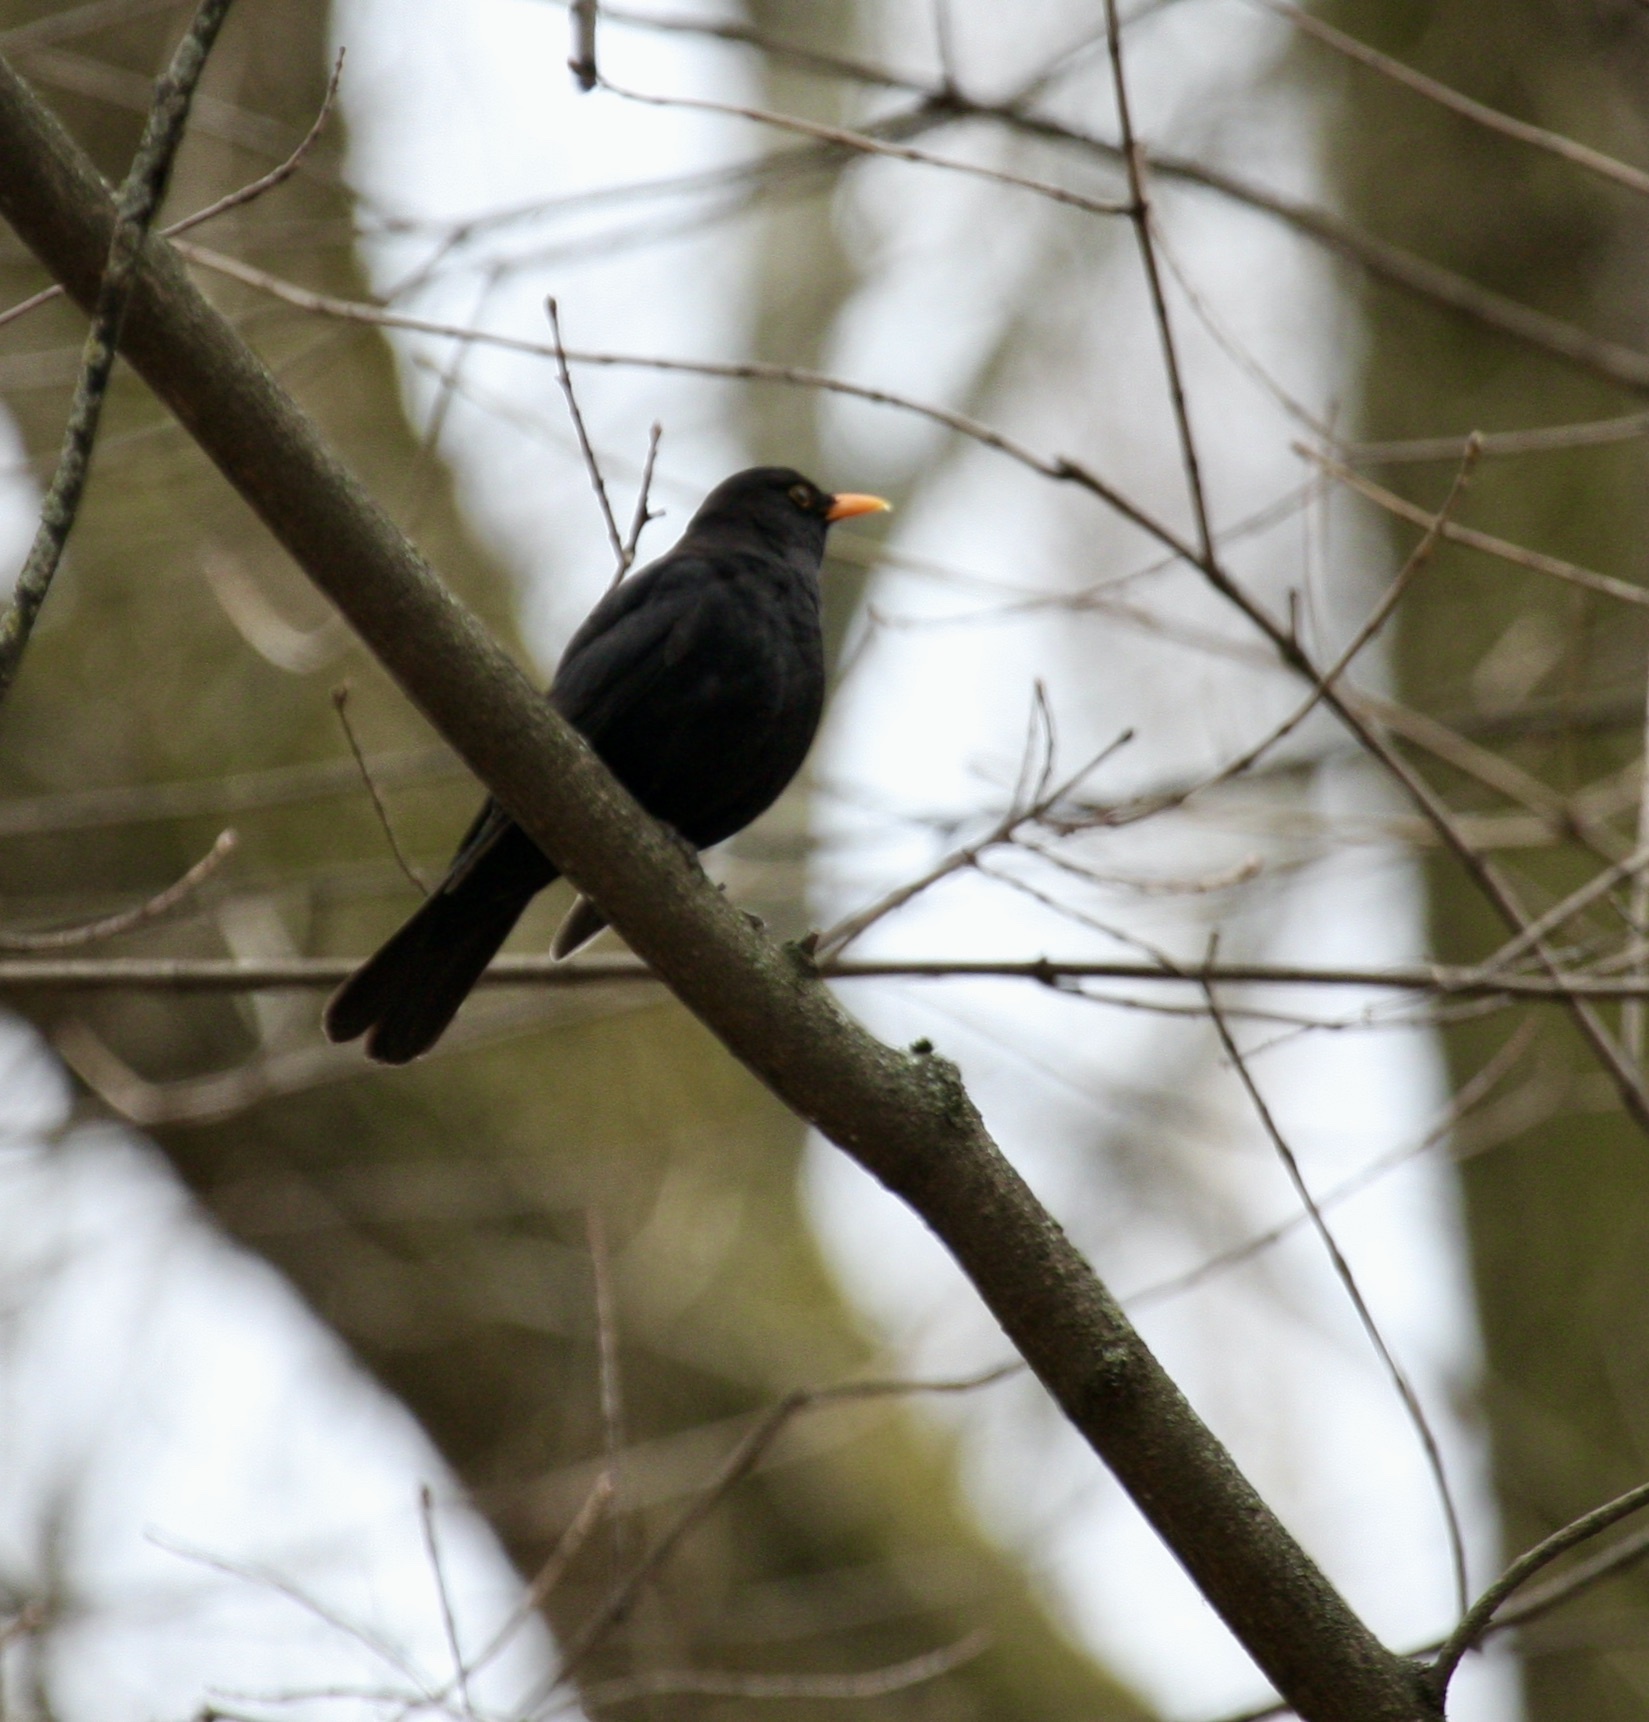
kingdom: Animalia
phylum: Chordata
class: Aves
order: Passeriformes
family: Turdidae
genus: Turdus
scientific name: Turdus merula
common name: Common blackbird
